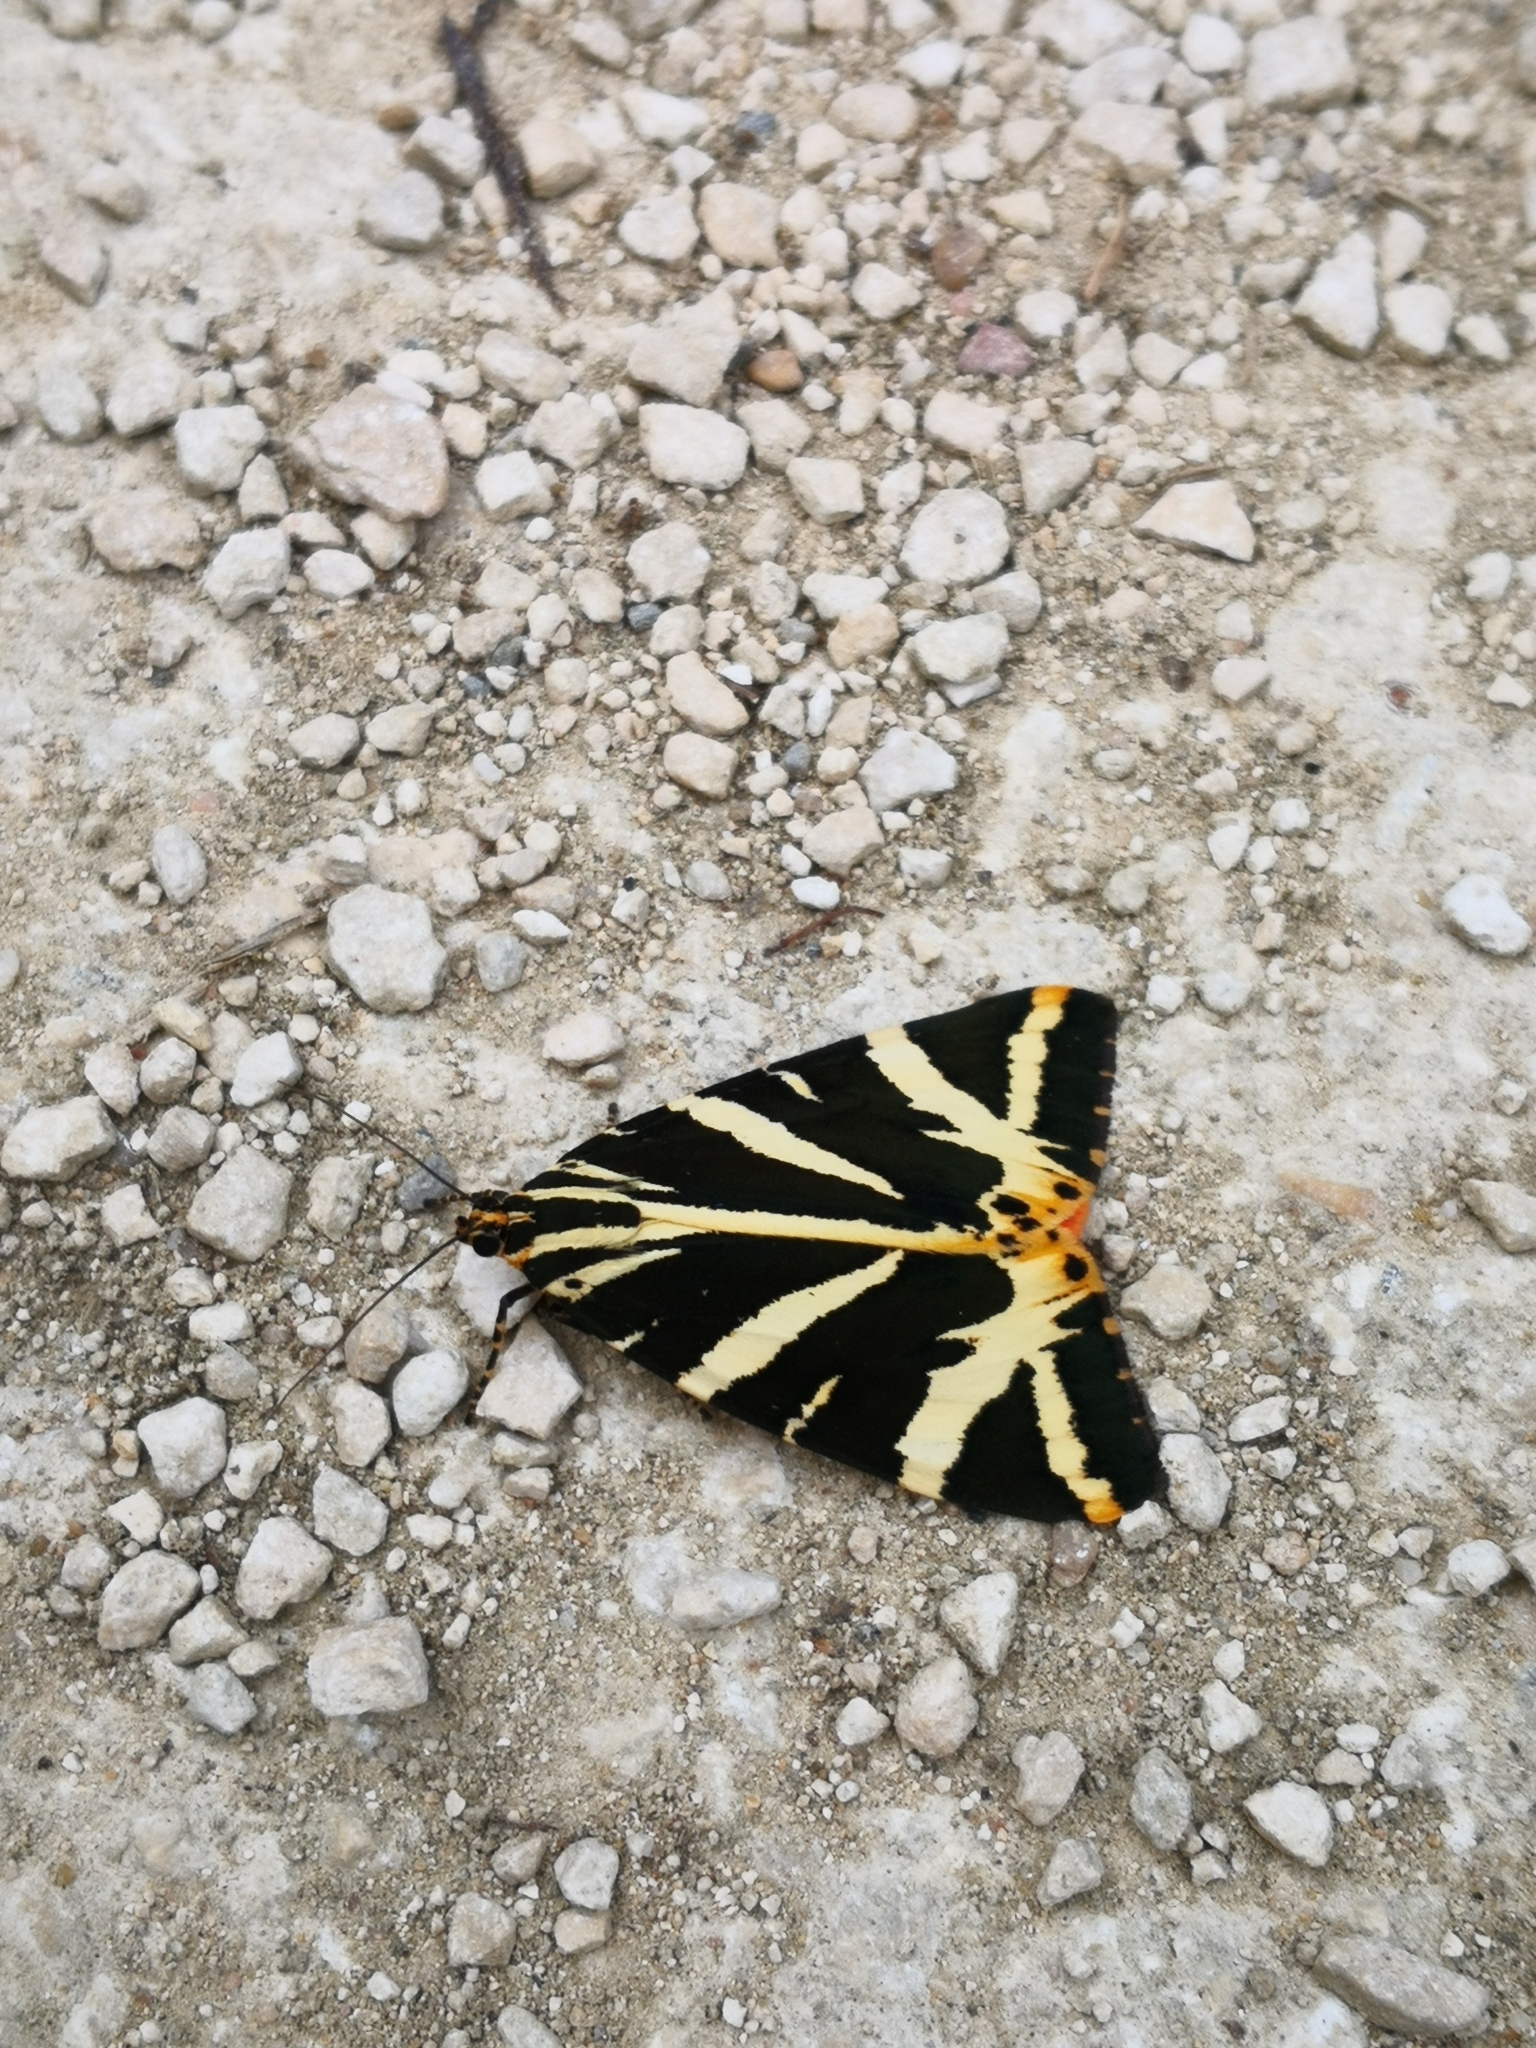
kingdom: Animalia
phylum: Arthropoda
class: Insecta
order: Lepidoptera
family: Erebidae
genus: Euplagia
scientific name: Euplagia quadripunctaria
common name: Jersey tiger
